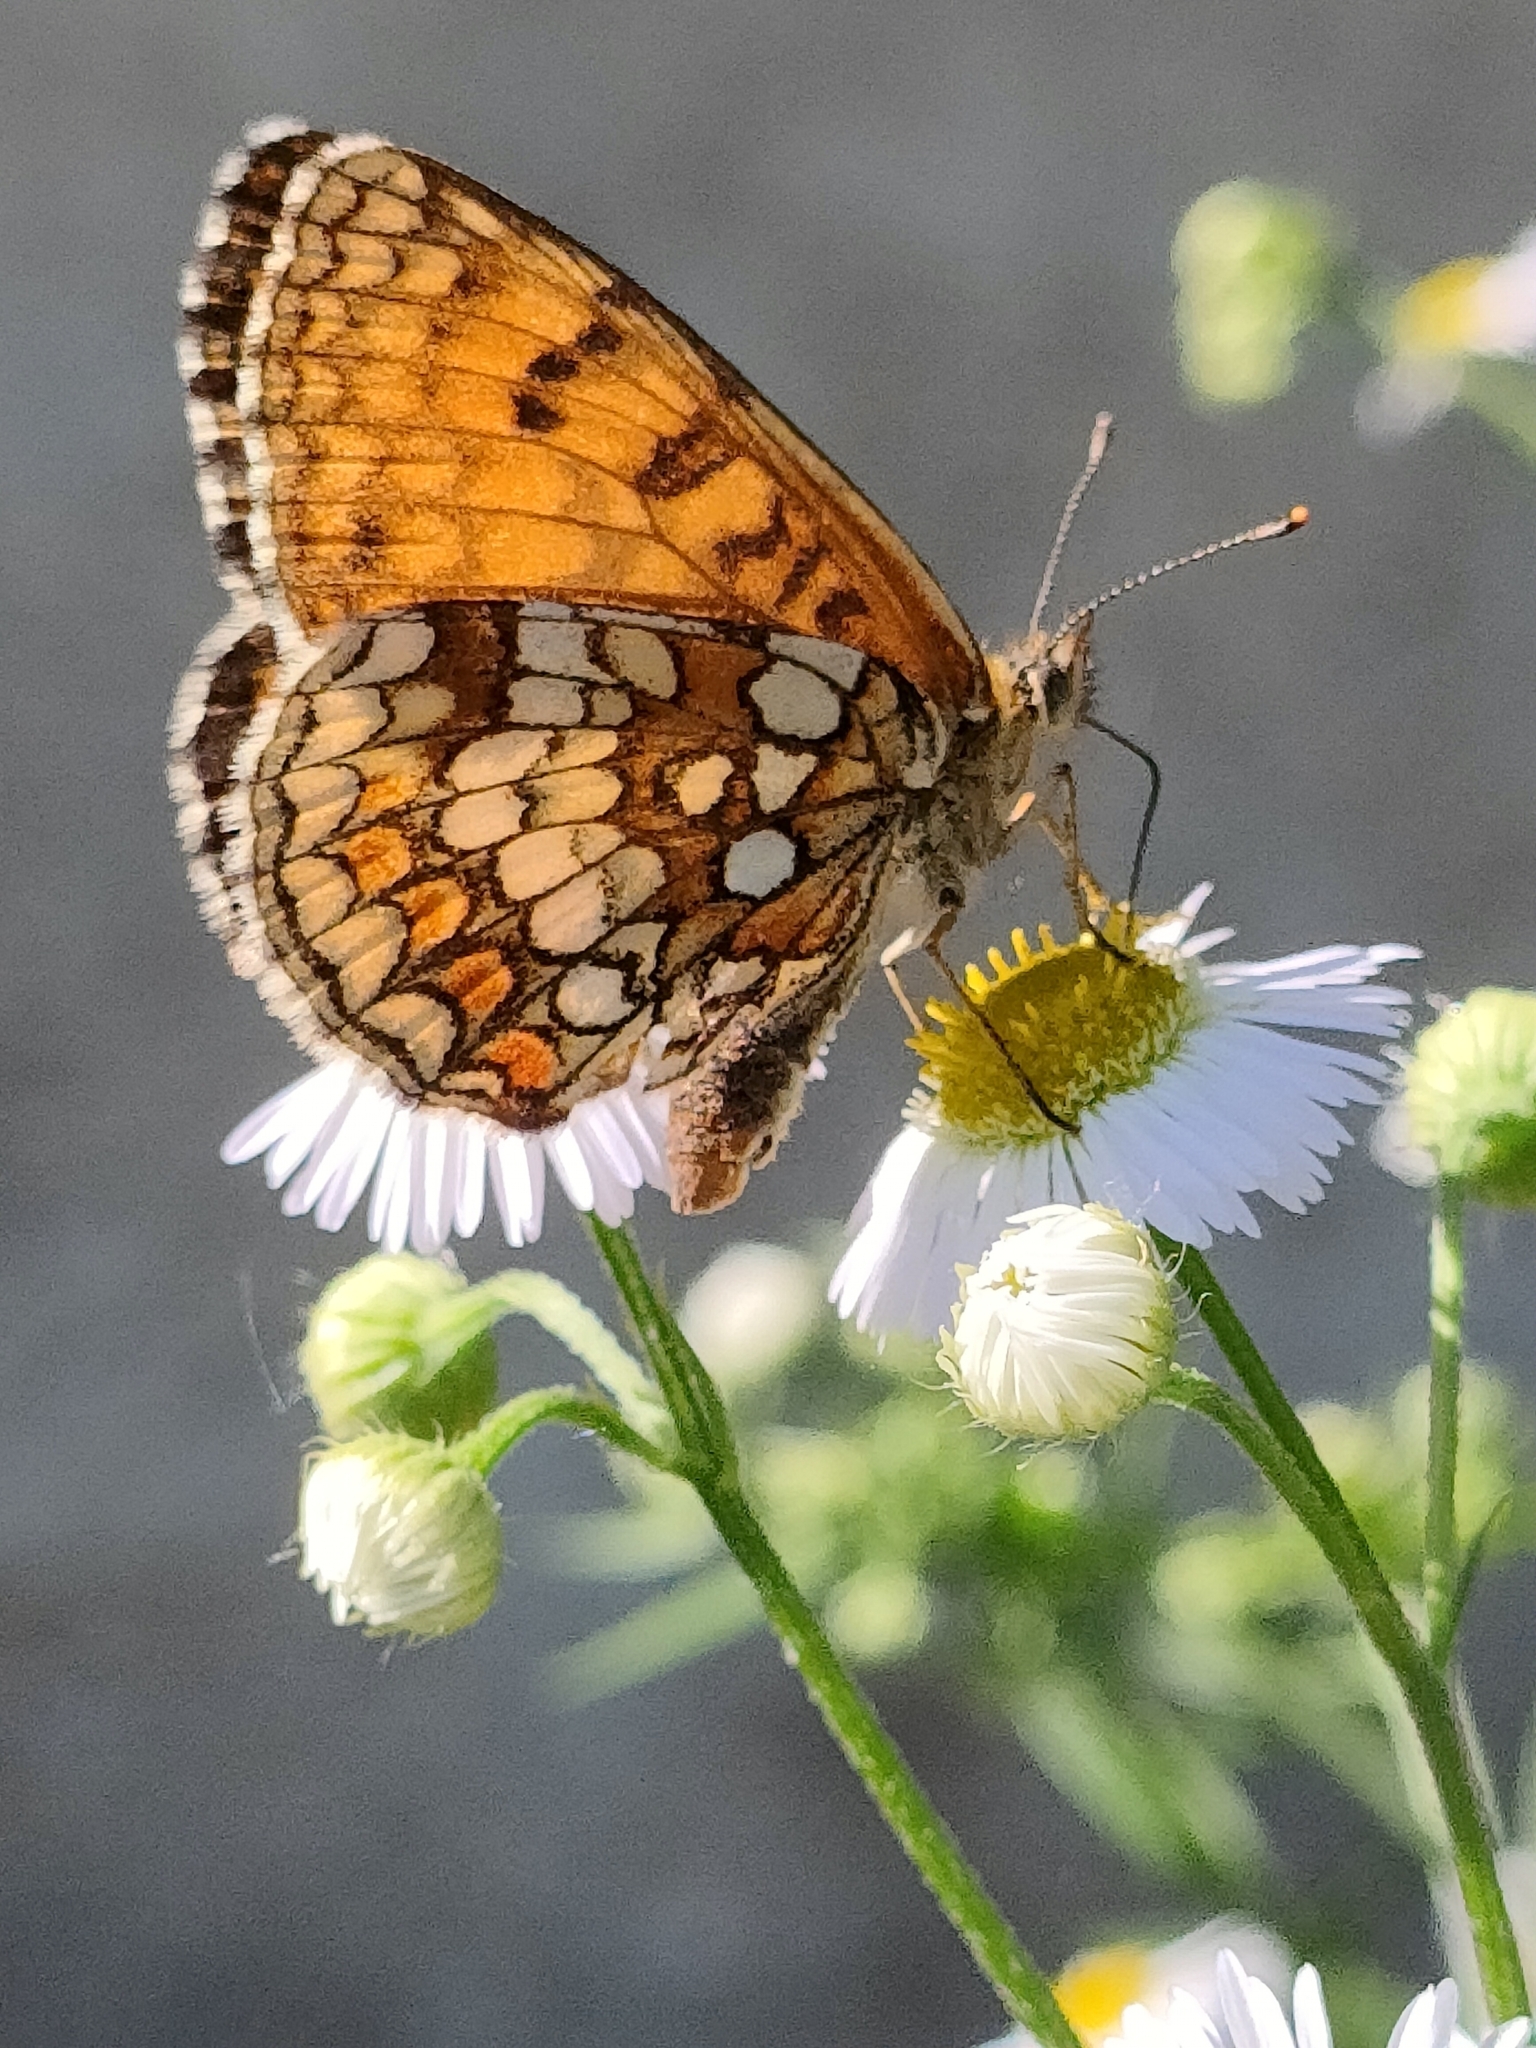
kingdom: Animalia
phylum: Arthropoda
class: Insecta
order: Lepidoptera
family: Nymphalidae
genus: Mellicta
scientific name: Mellicta athalia
